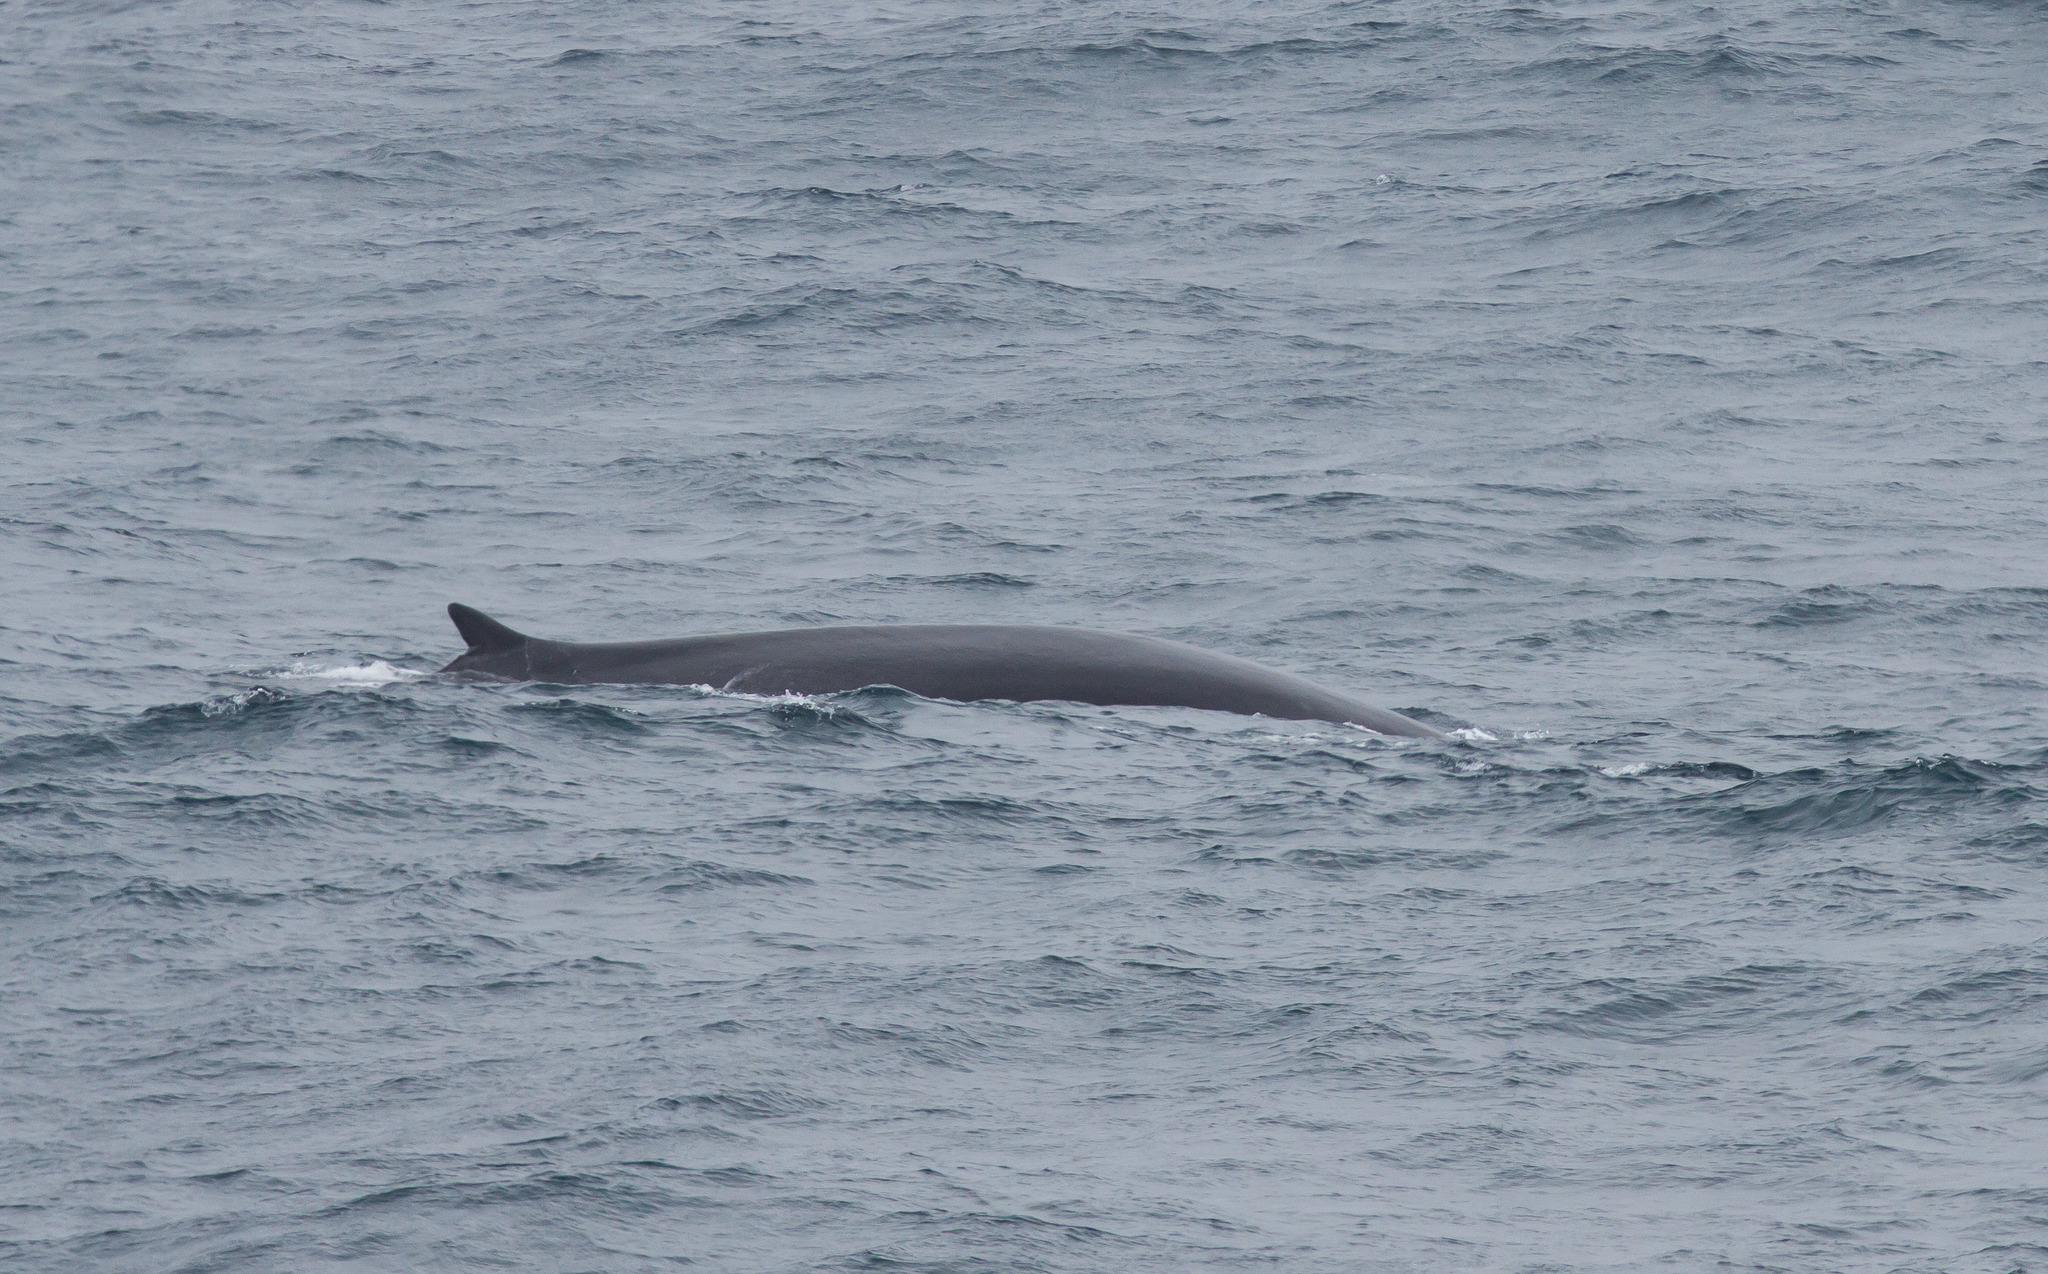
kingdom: Animalia
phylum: Chordata
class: Mammalia
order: Cetacea
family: Balaenopteridae
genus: Balaenoptera
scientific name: Balaenoptera physalus
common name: Fin whale
